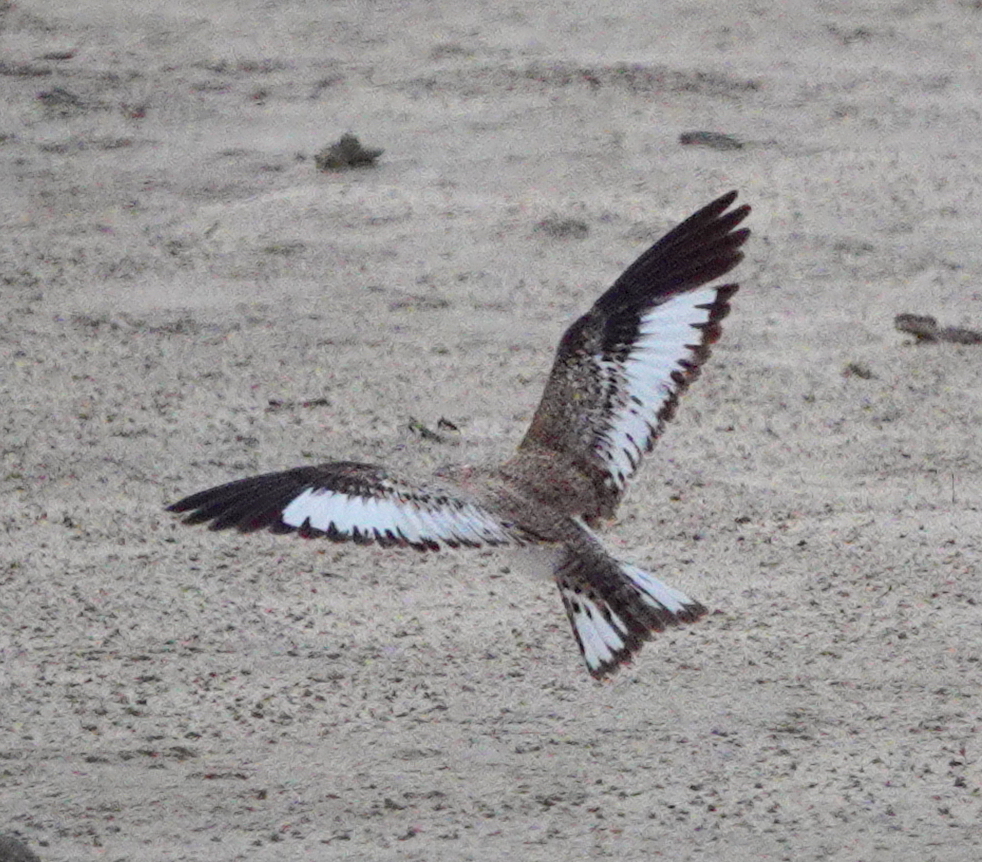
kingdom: Animalia
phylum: Chordata
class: Aves
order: Caprimulgiformes
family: Caprimulgidae
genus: Chordeiles
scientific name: Chordeiles rupestris
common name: Sand-colored nighthawk
